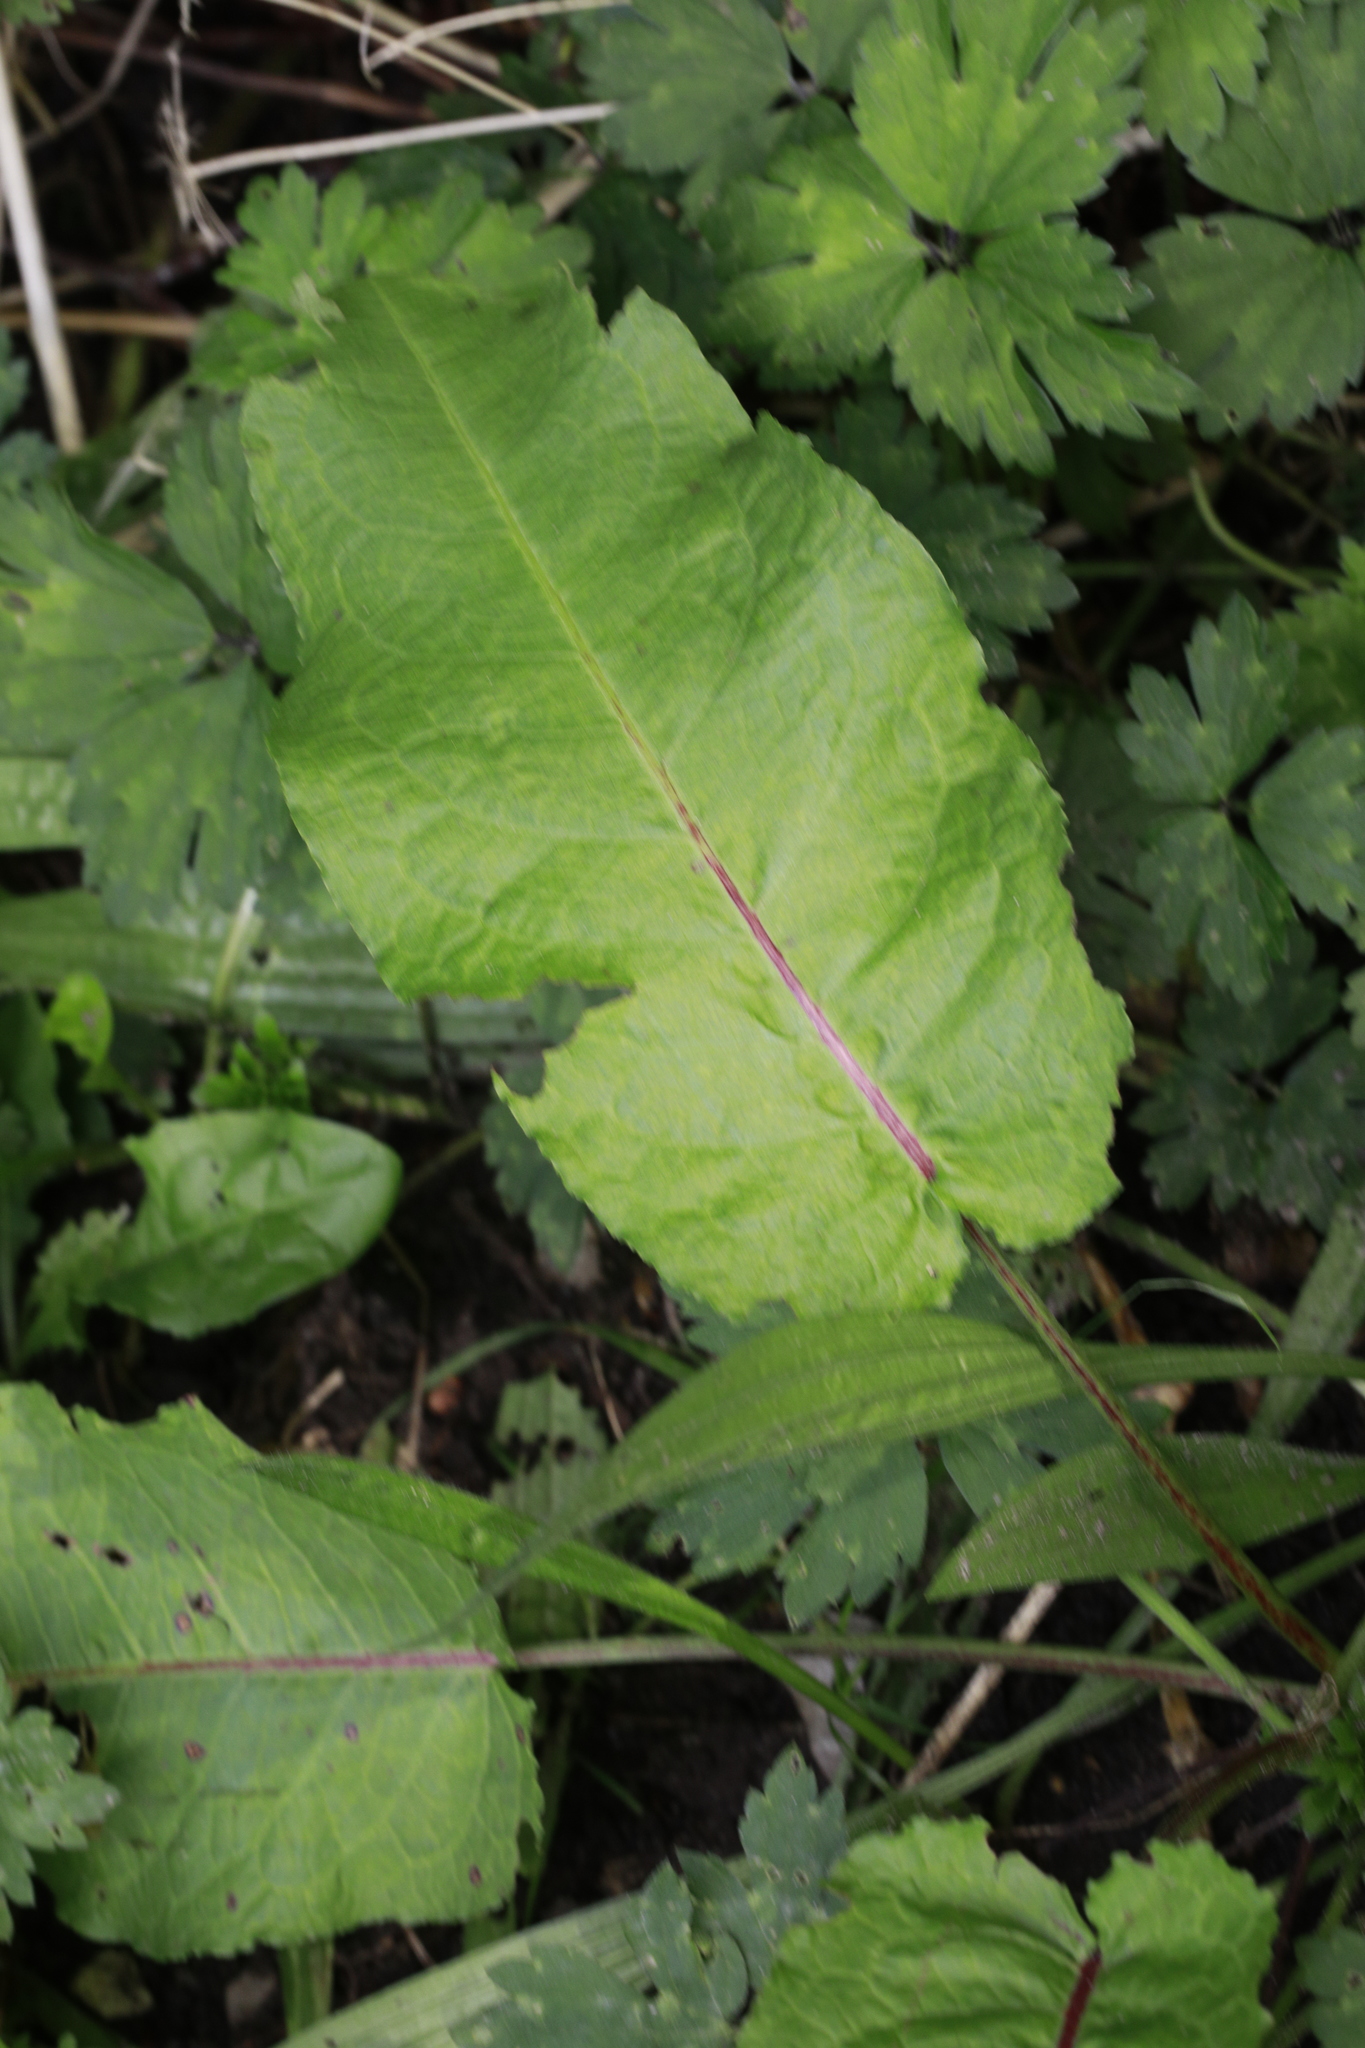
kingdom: Plantae
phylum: Tracheophyta
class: Magnoliopsida
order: Caryophyllales
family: Polygonaceae
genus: Rumex
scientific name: Rumex obtusifolius
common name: Bitter dock
